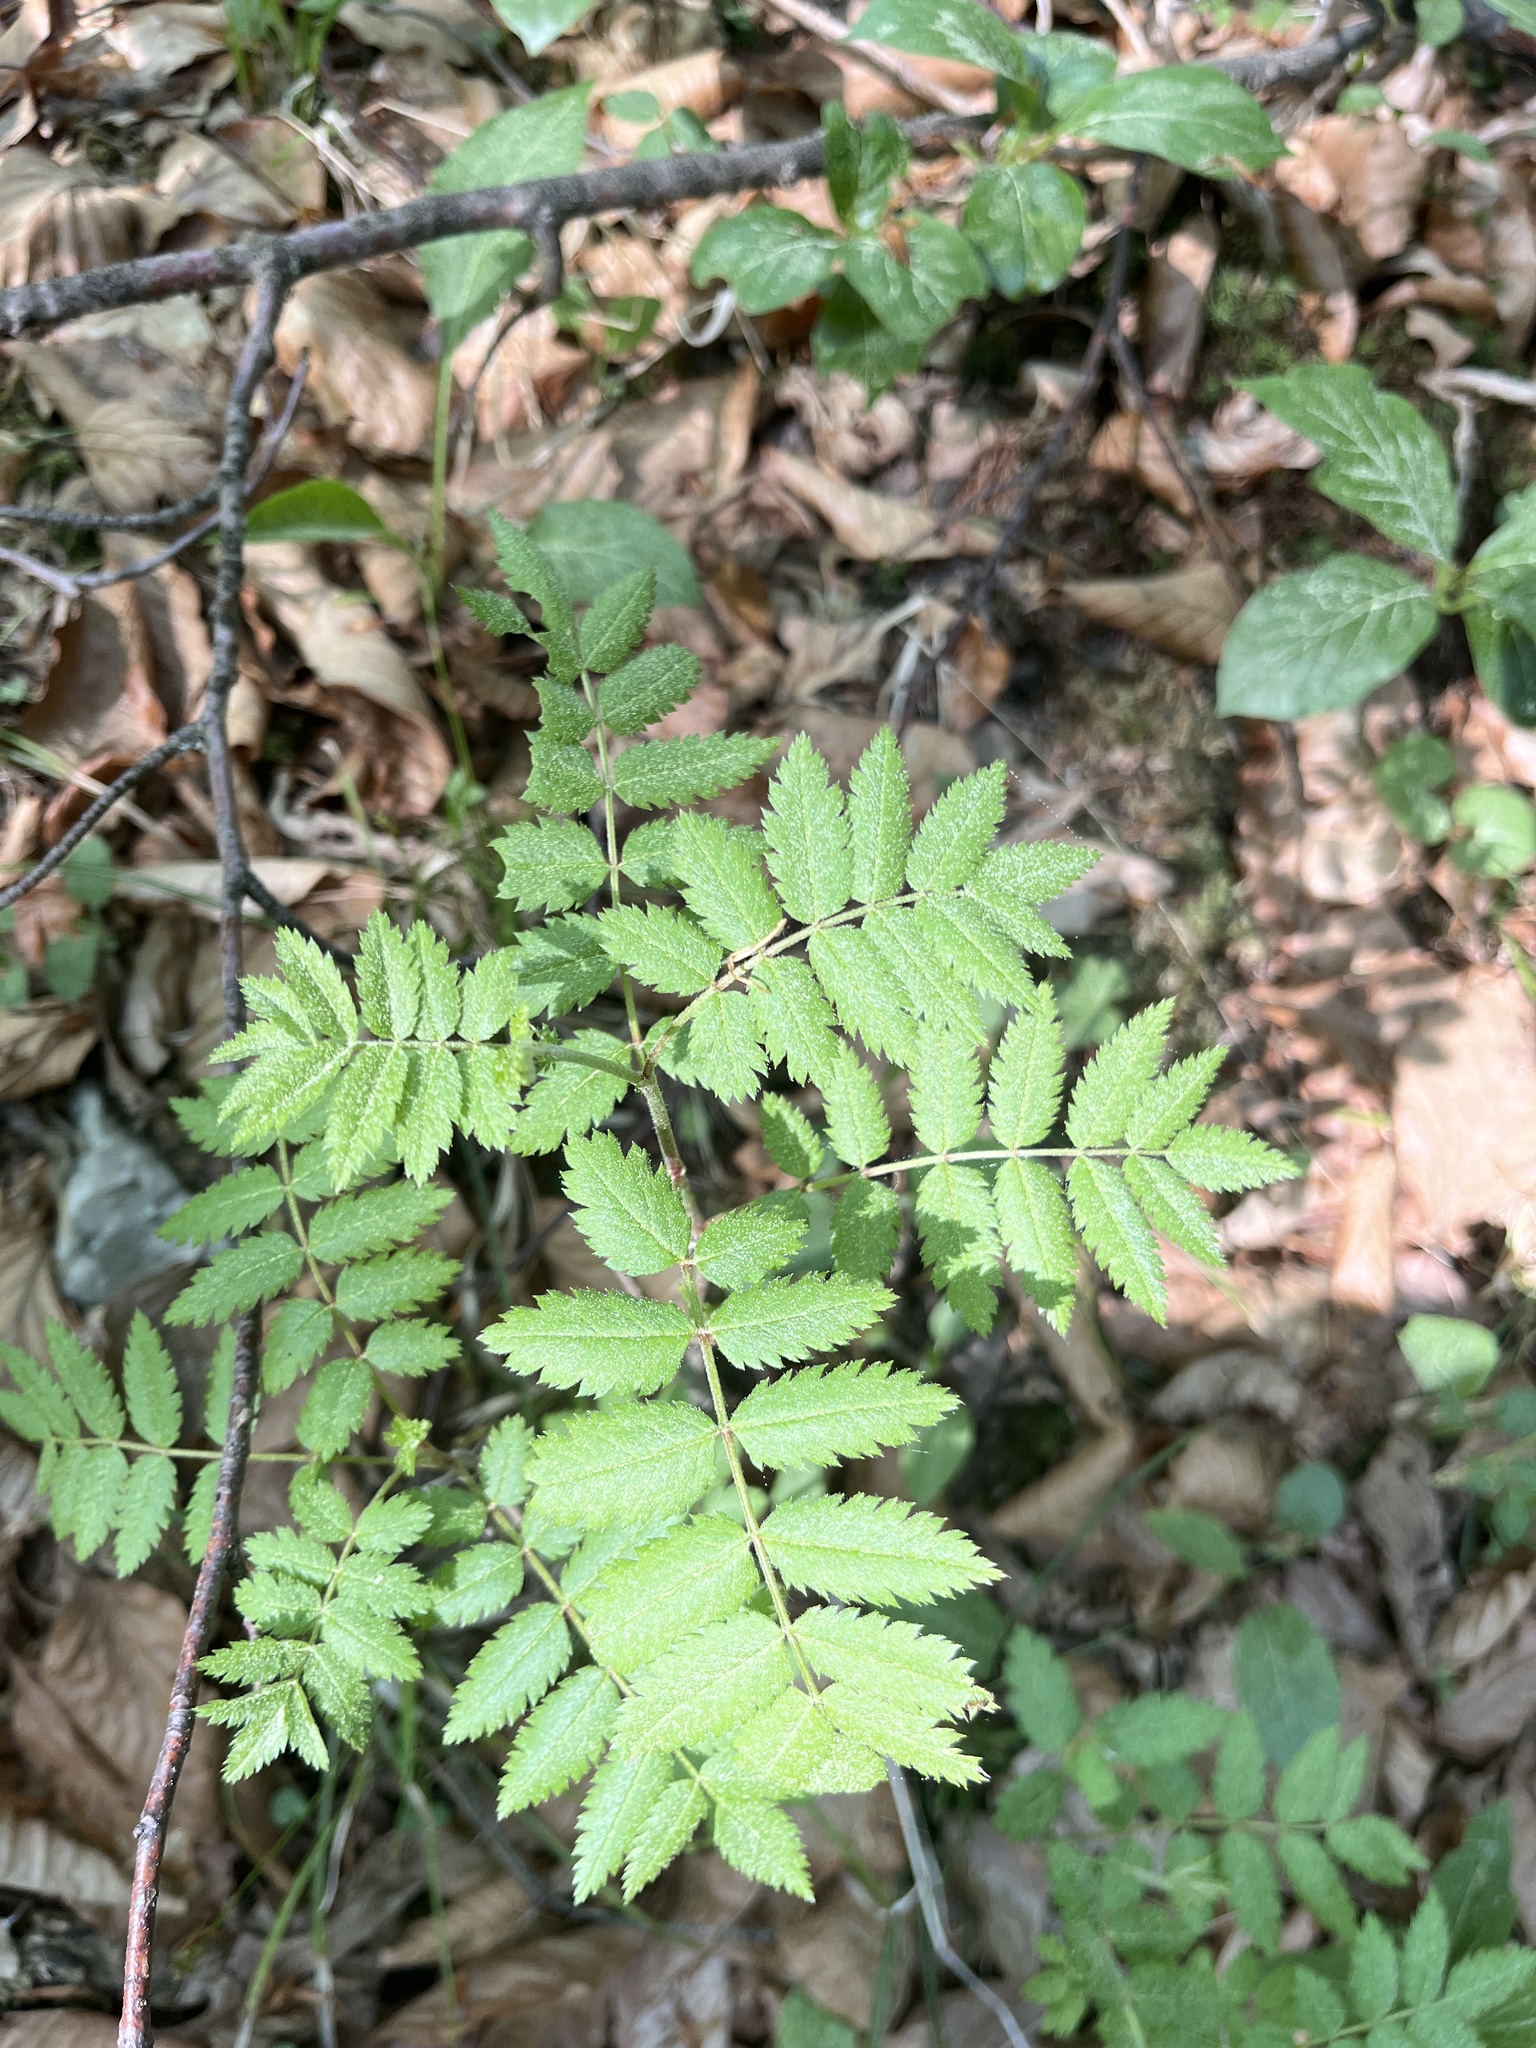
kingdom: Plantae
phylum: Tracheophyta
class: Magnoliopsida
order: Rosales
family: Rosaceae
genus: Sorbus
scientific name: Sorbus aucuparia
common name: Rowan
